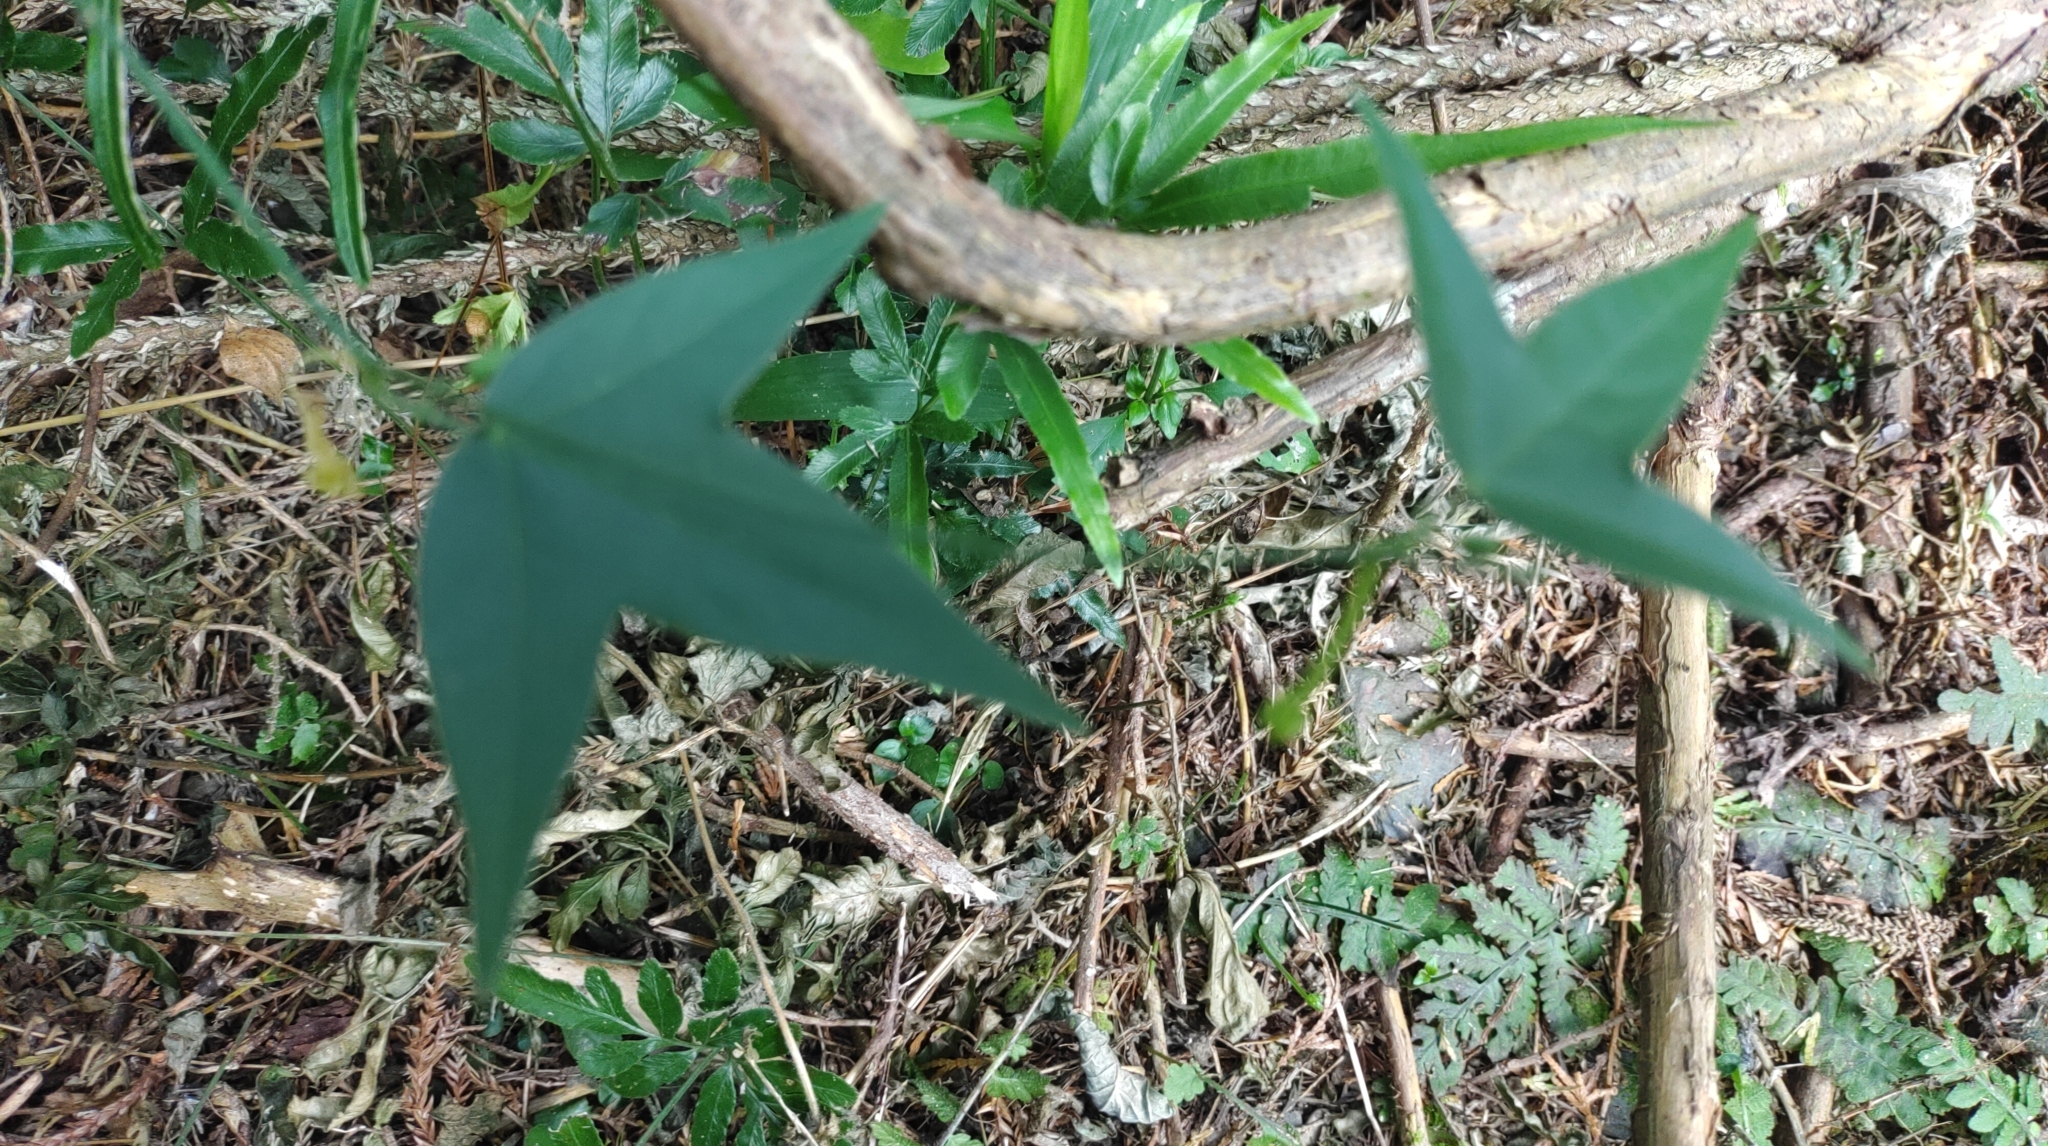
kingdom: Plantae
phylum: Tracheophyta
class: Magnoliopsida
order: Malpighiales
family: Passifloraceae
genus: Passiflora
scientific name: Passiflora suberosa
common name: Wild passionfruit
